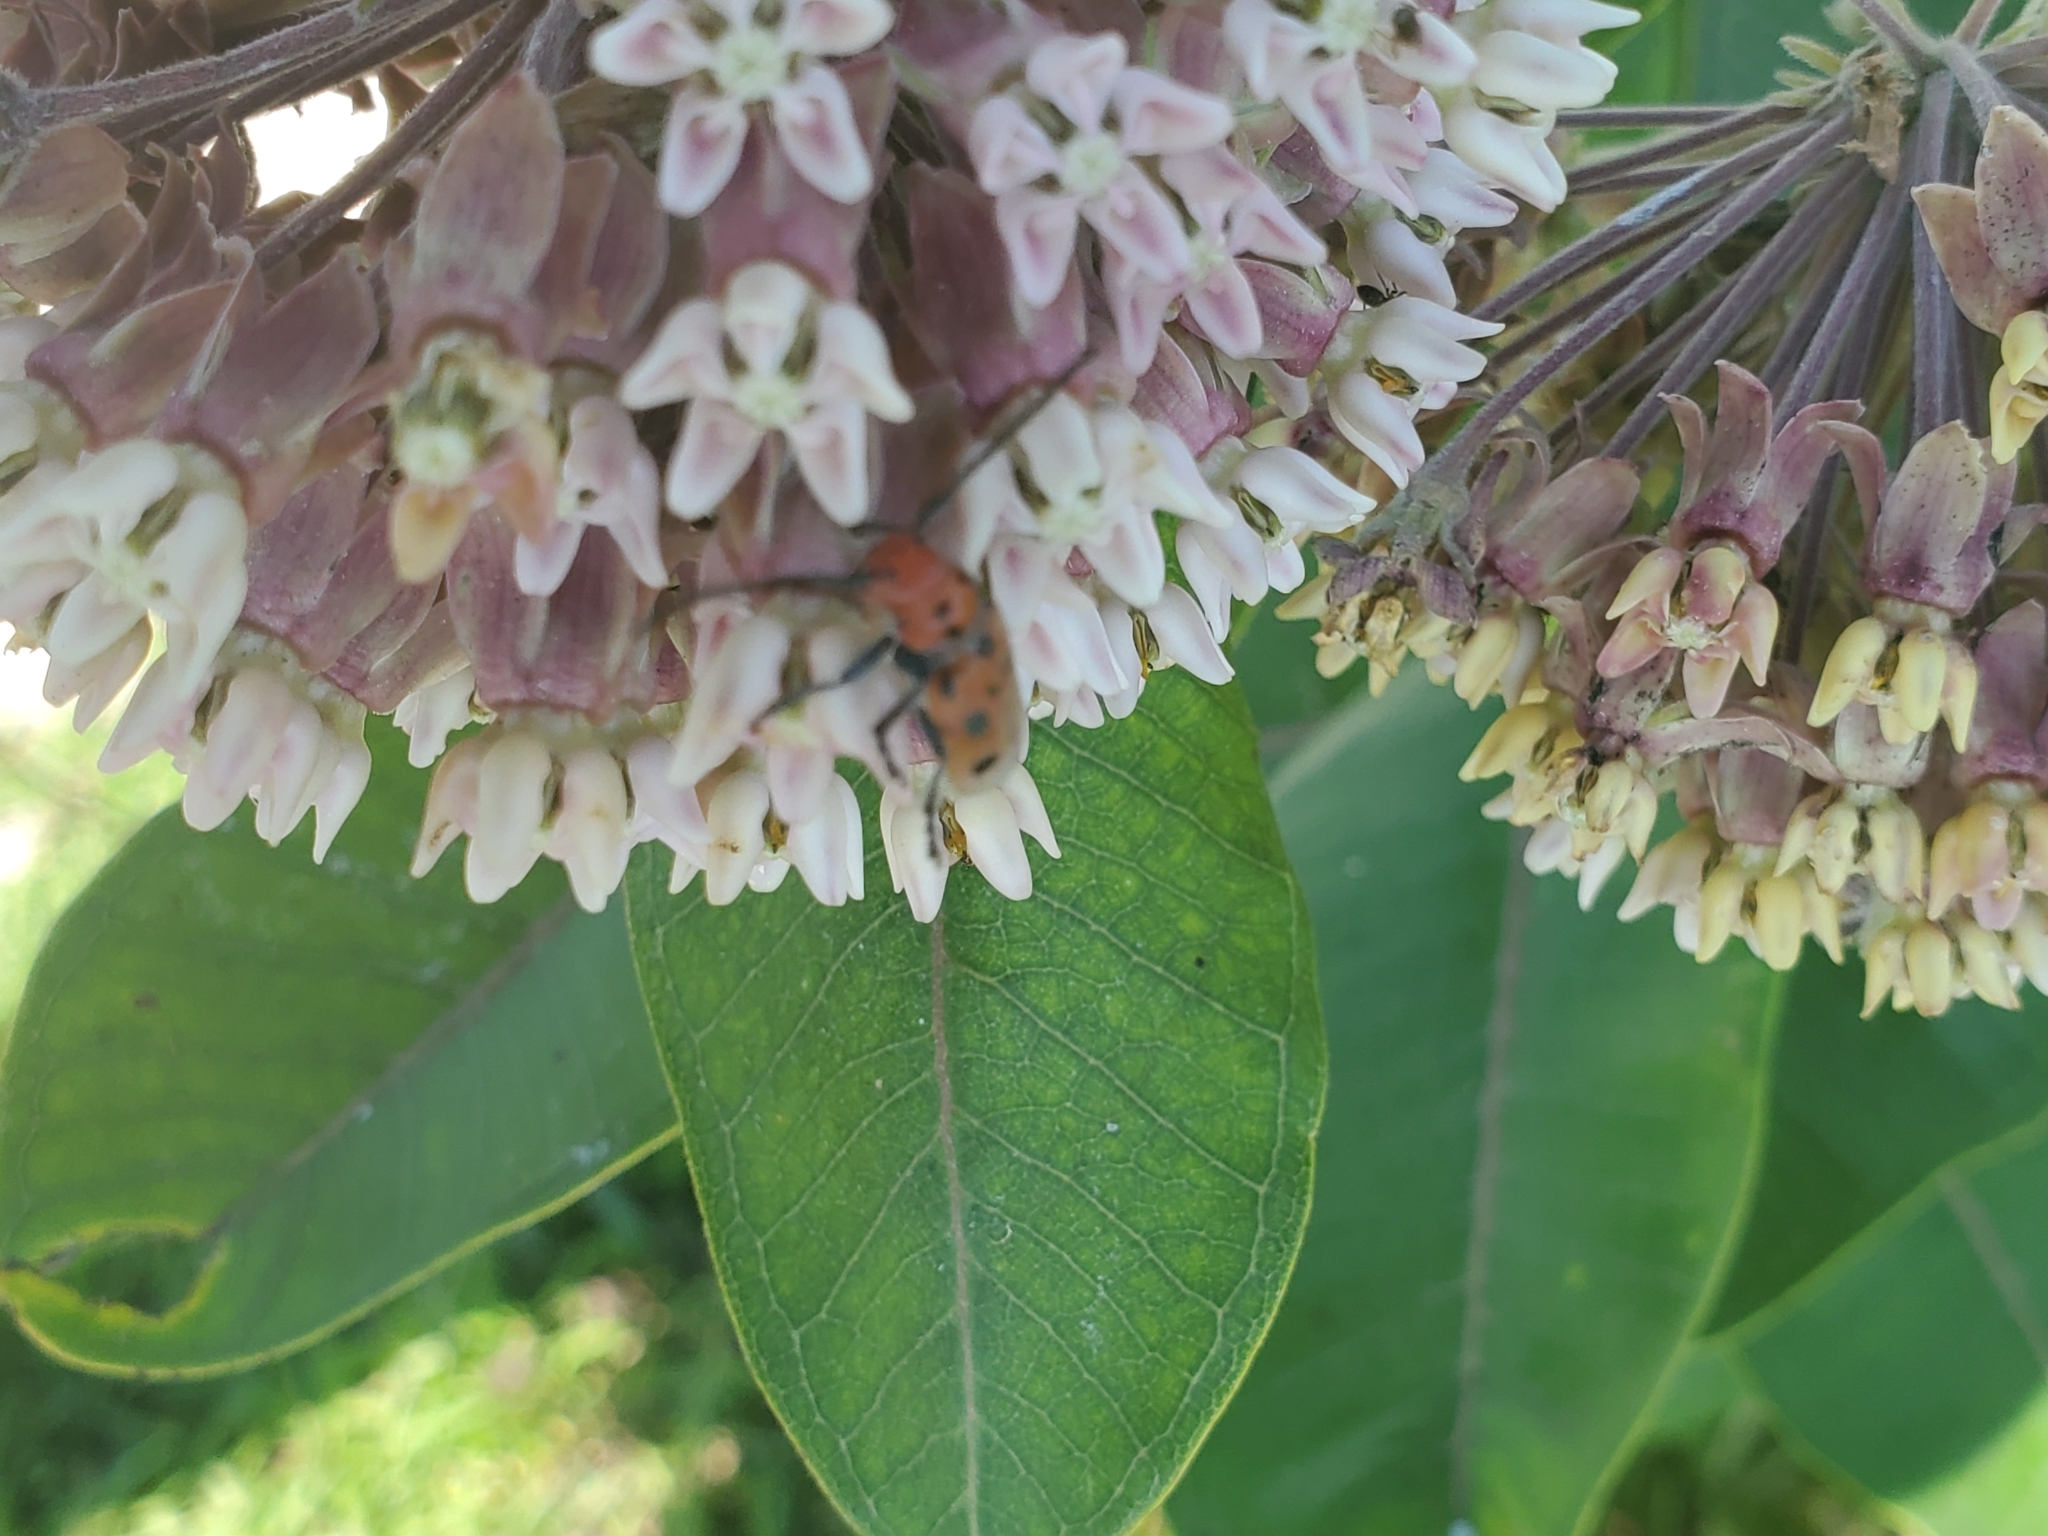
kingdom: Animalia
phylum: Arthropoda
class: Insecta
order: Coleoptera
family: Cerambycidae
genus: Tetraopes
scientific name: Tetraopes tetrophthalmus
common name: Red milkweed beetle
